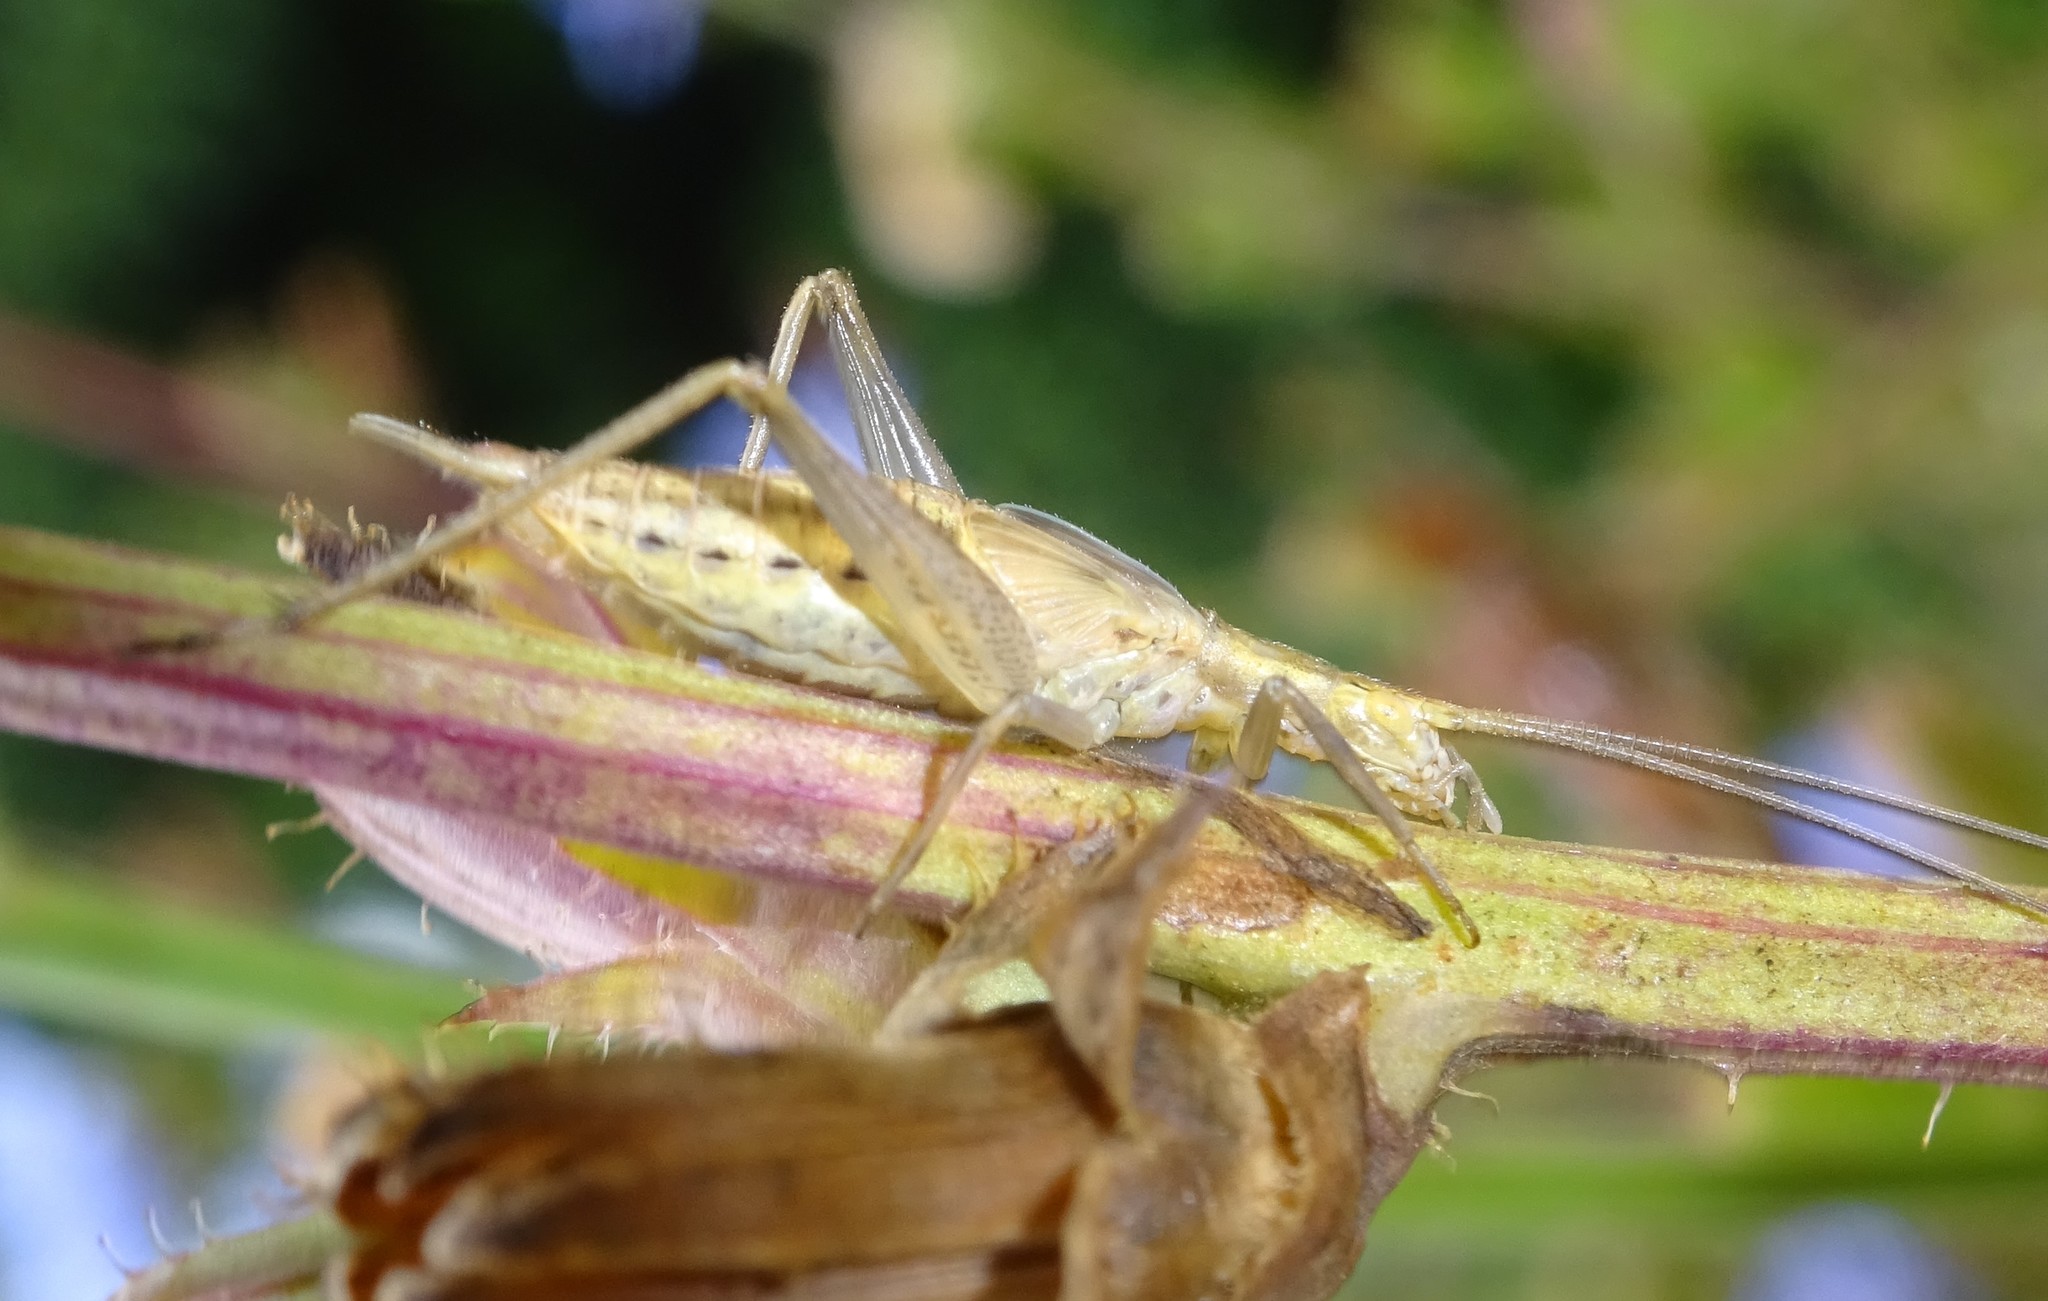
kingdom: Animalia
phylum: Arthropoda
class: Insecta
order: Orthoptera
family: Gryllidae
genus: Oecanthus
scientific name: Oecanthus pellucens
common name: Tree-cricket
